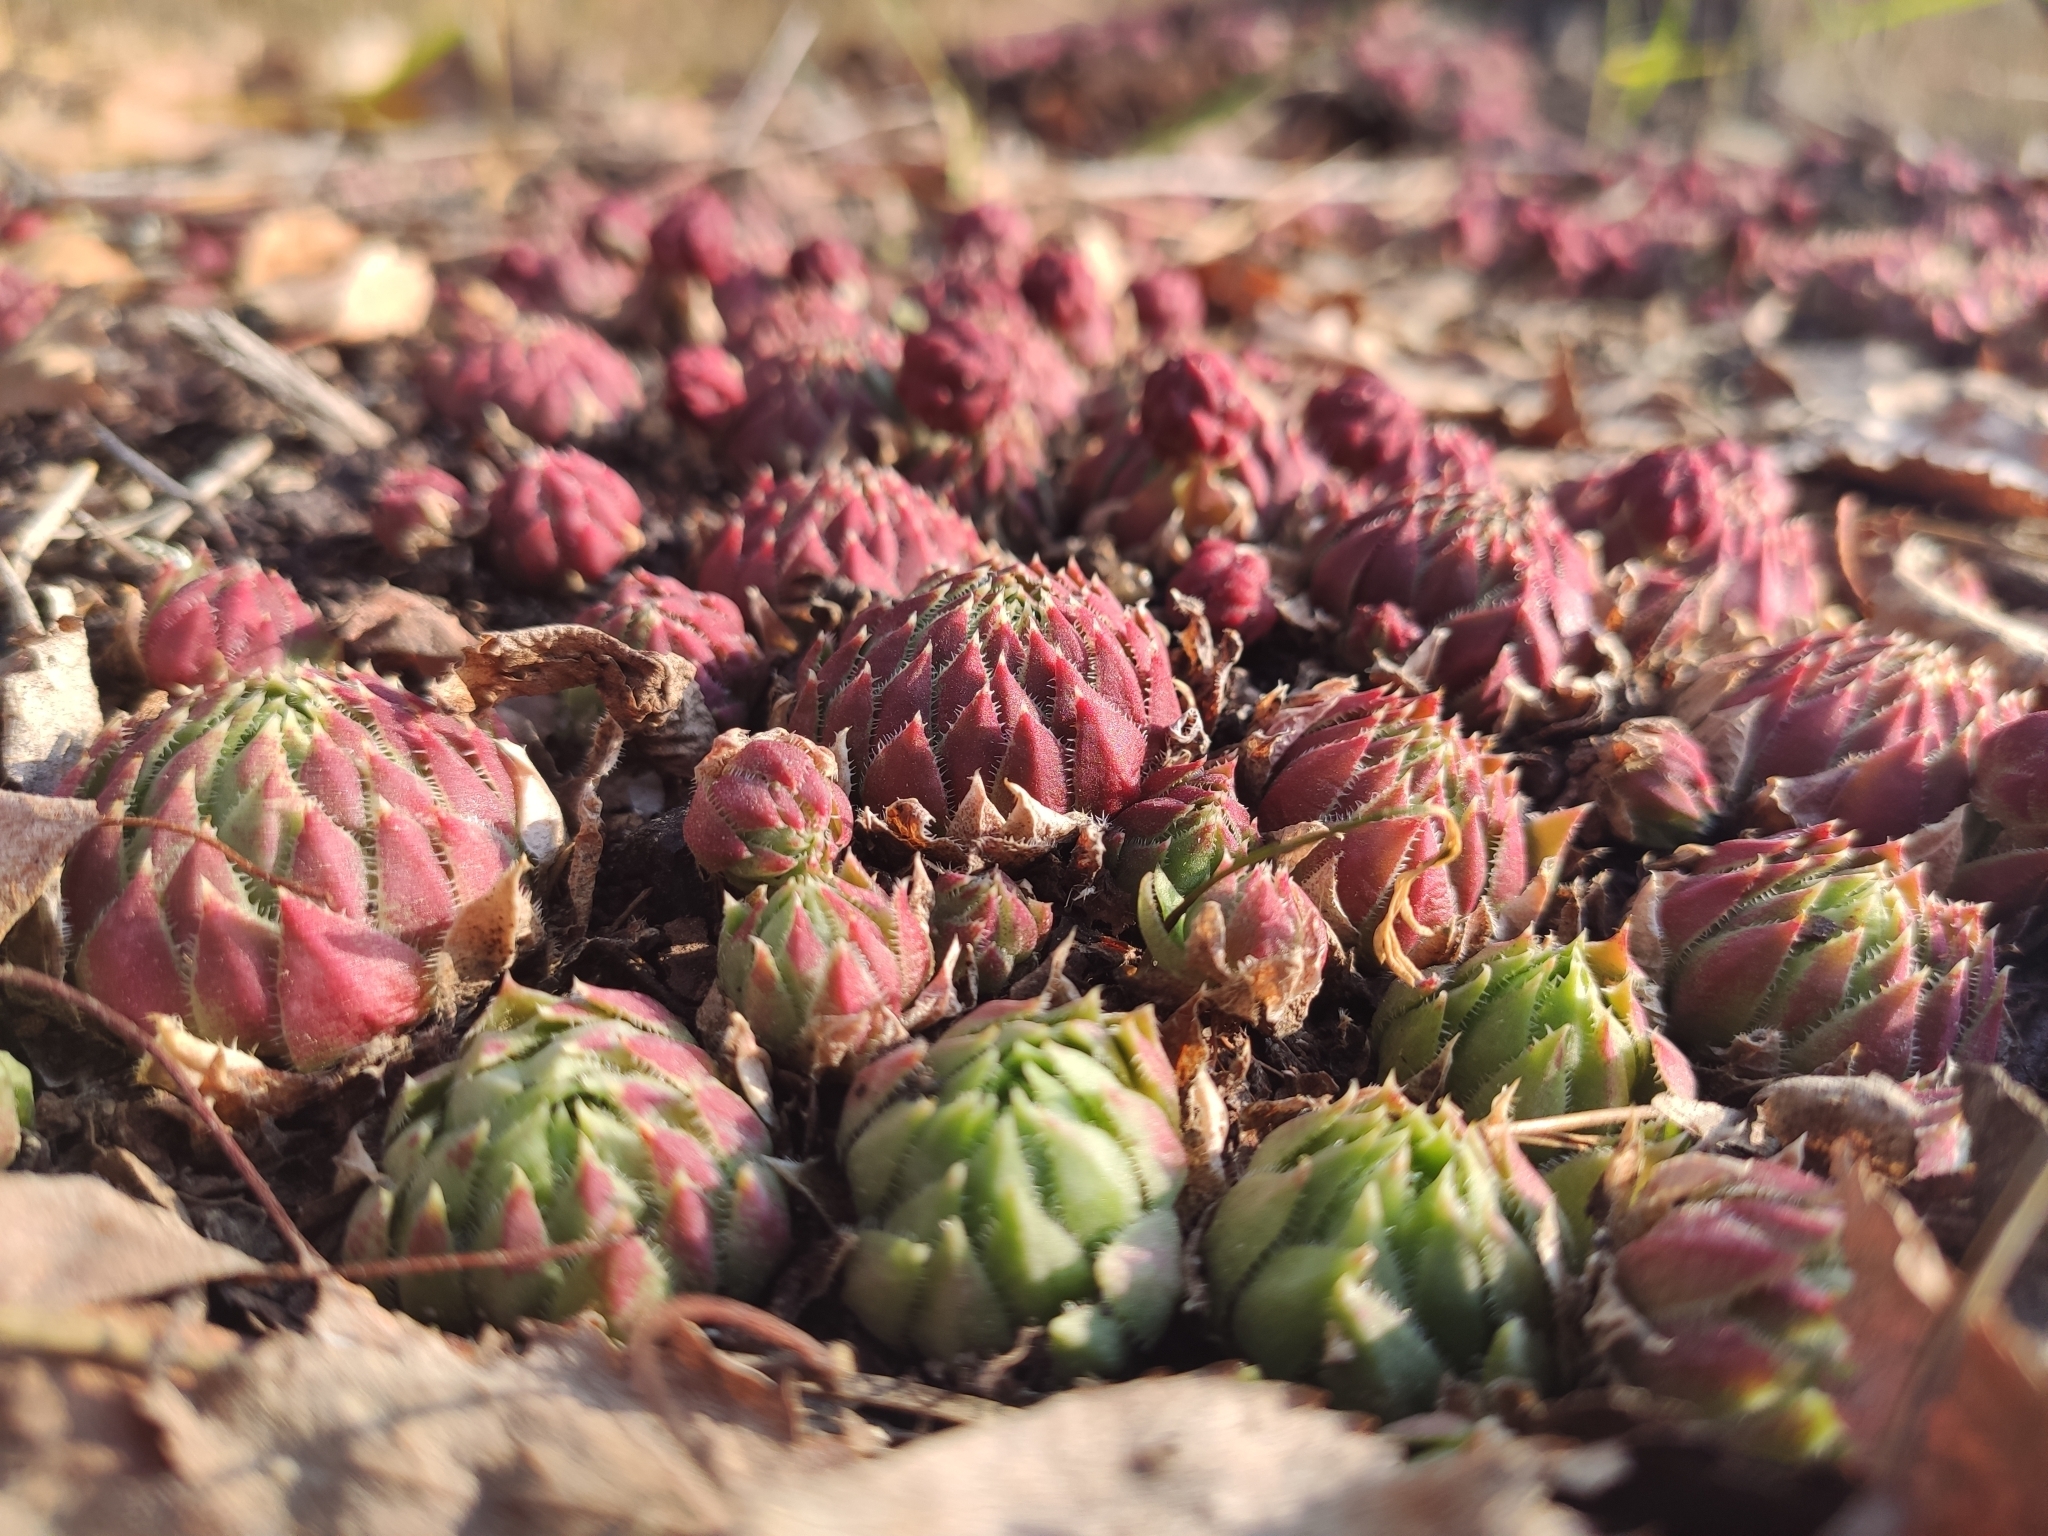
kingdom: Plantae
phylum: Tracheophyta
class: Magnoliopsida
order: Saxifragales
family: Crassulaceae
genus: Sempervivum
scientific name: Sempervivum globiferum
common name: Rolling hen-and-chicks
